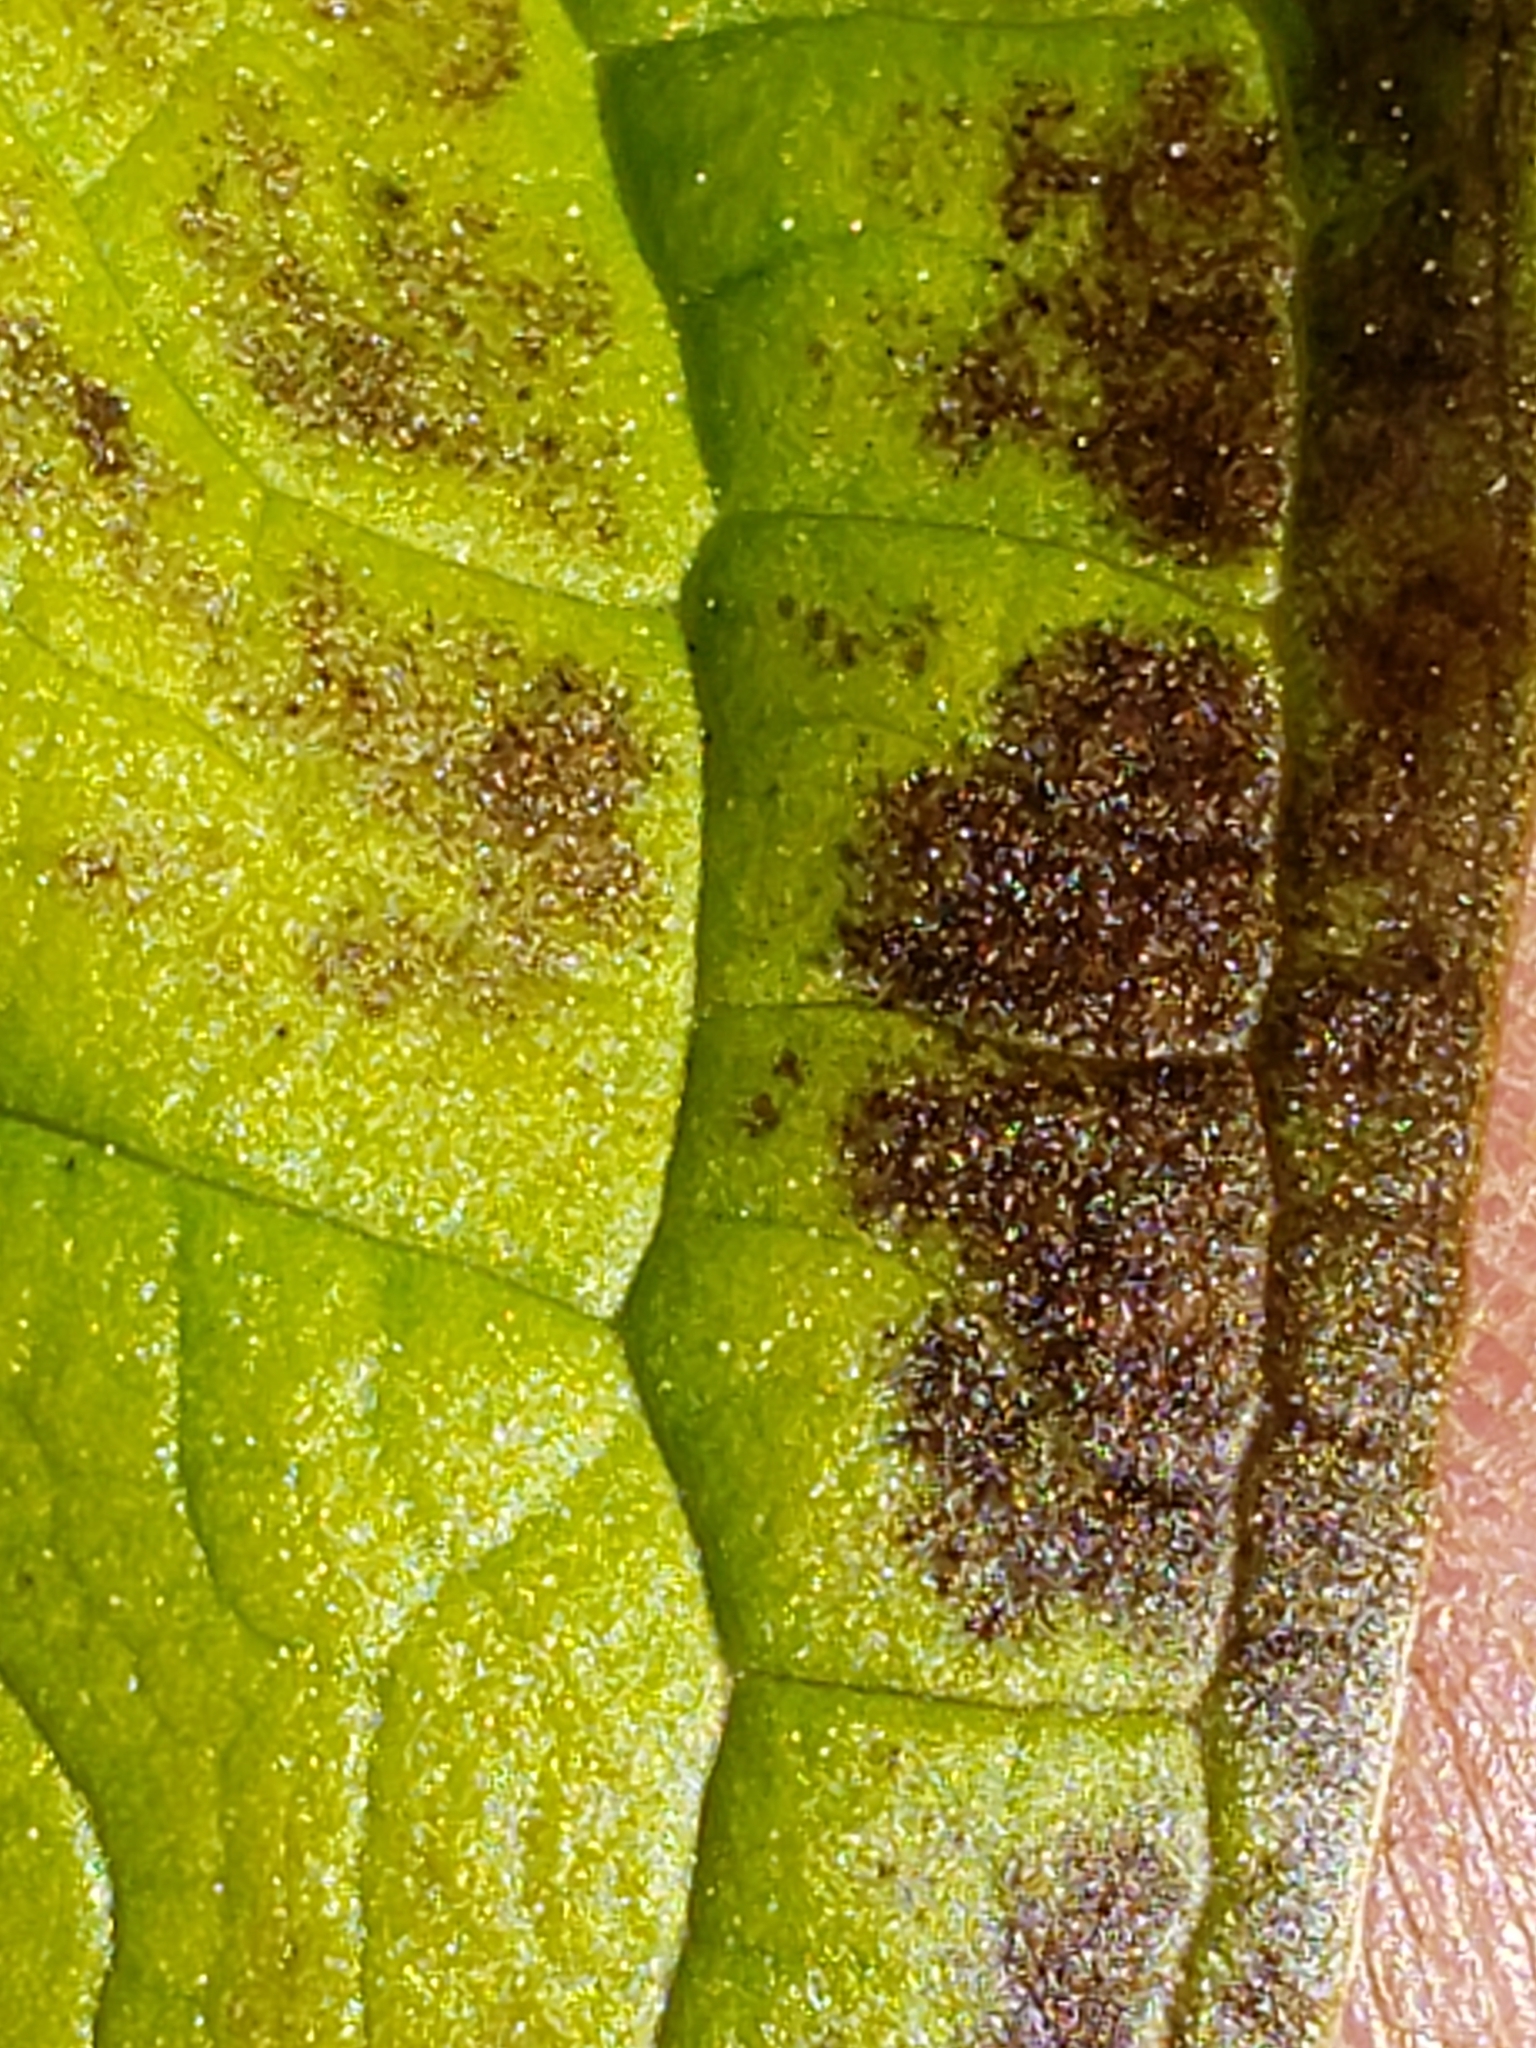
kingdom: Plantae
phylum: Tracheophyta
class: Liliopsida
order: Alismatales
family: Araceae
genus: Symplocarpus
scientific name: Symplocarpus foetidus
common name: Eastern skunk cabbage
